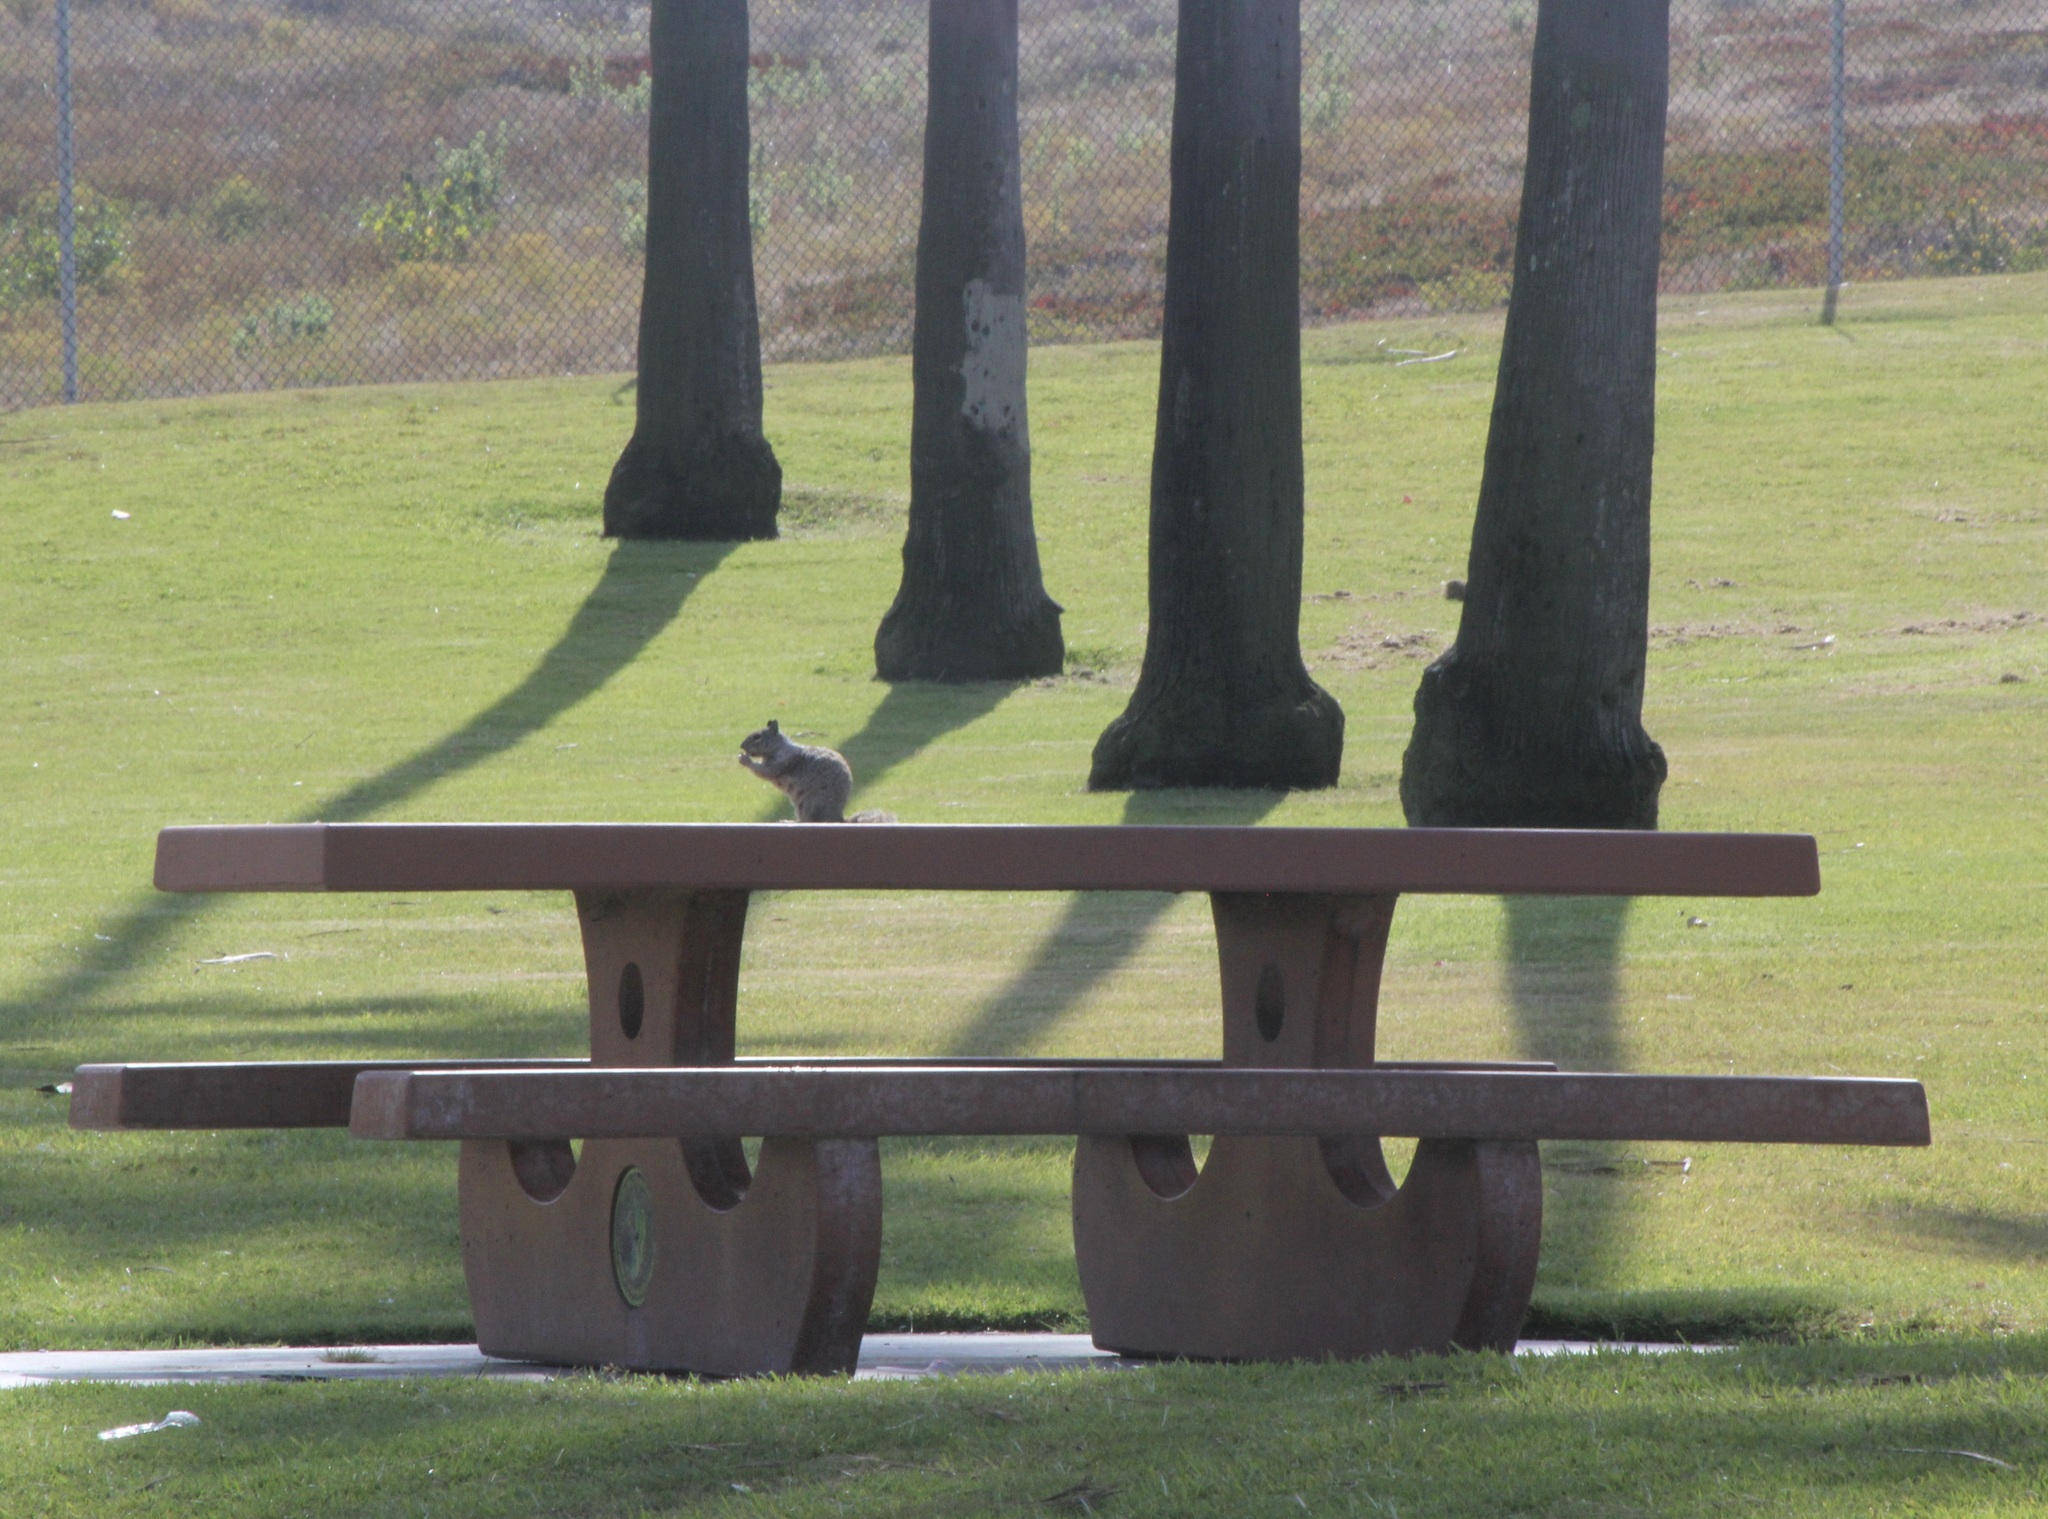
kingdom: Animalia
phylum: Chordata
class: Mammalia
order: Rodentia
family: Sciuridae
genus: Otospermophilus
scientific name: Otospermophilus beecheyi
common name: California ground squirrel
